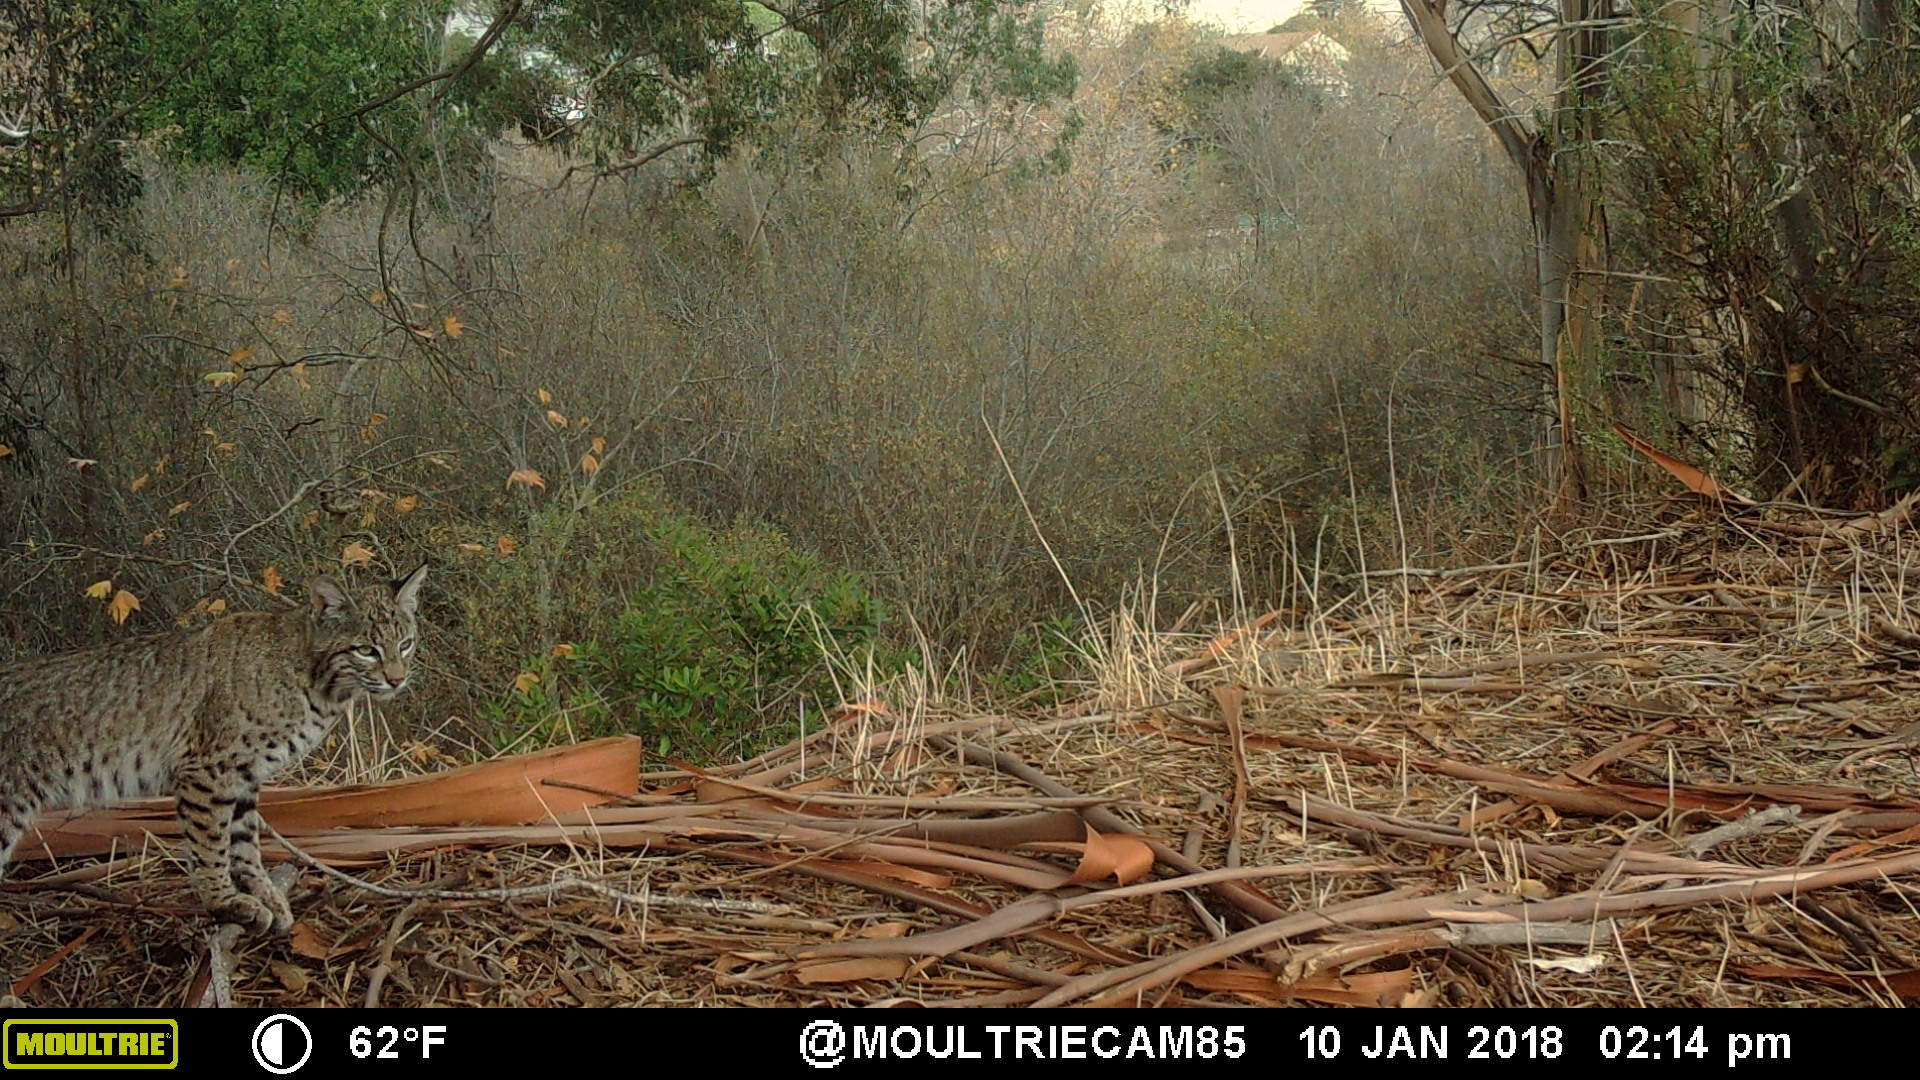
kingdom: Animalia
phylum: Chordata
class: Mammalia
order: Carnivora
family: Felidae
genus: Lynx
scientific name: Lynx rufus
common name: Bobcat
